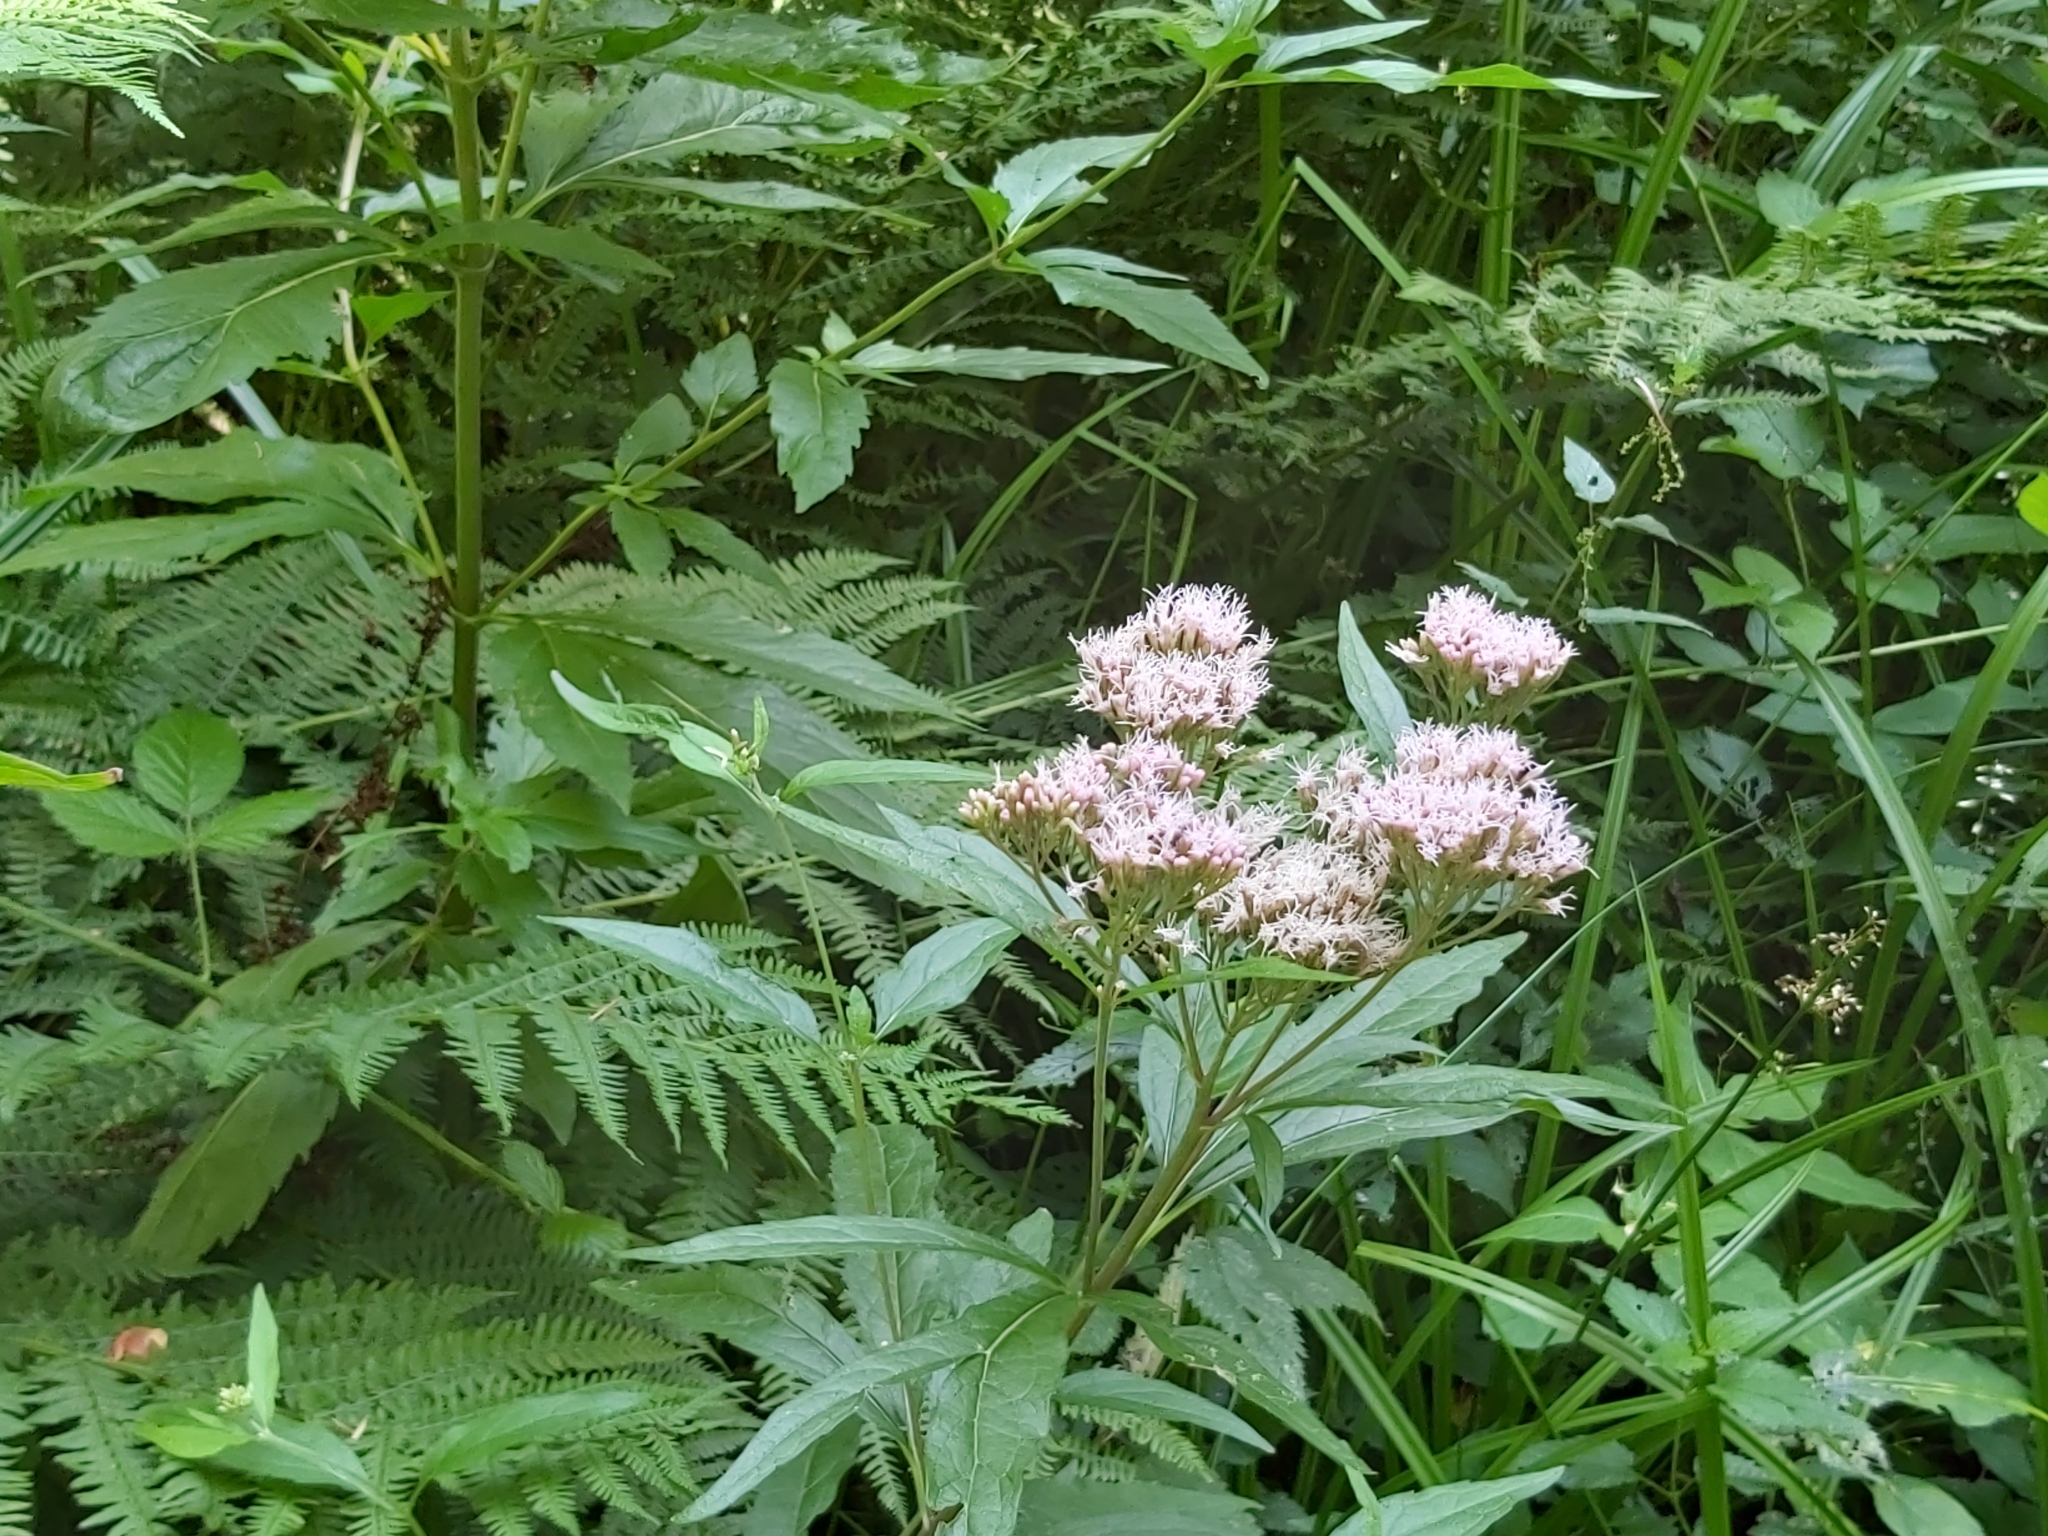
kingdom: Plantae
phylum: Tracheophyta
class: Magnoliopsida
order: Asterales
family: Asteraceae
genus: Eupatorium
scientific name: Eupatorium cannabinum
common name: Hemp-agrimony
